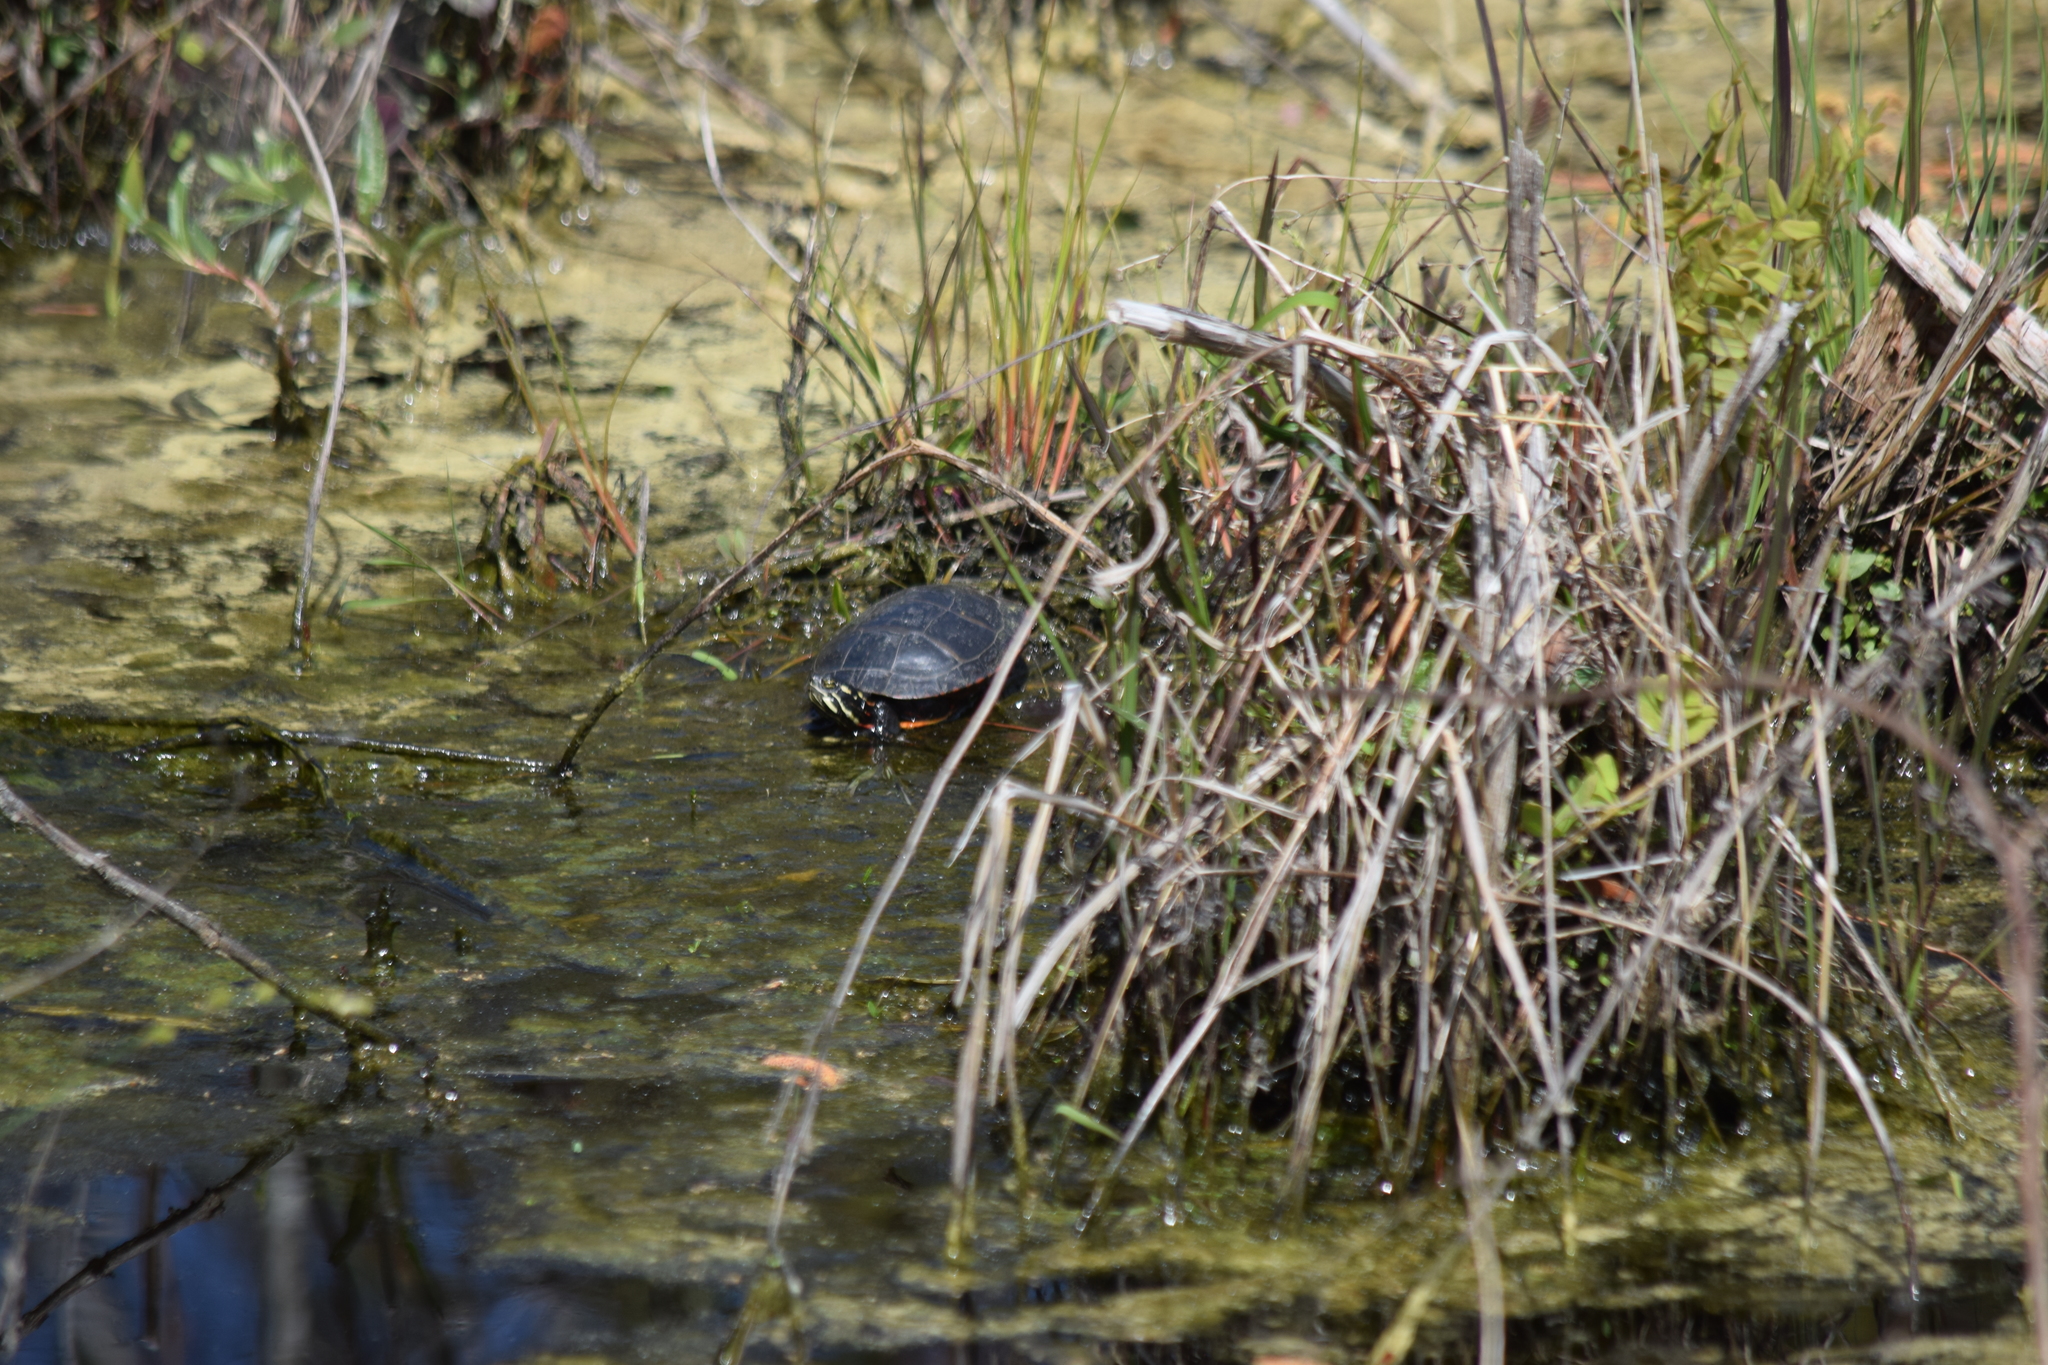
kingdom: Animalia
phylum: Chordata
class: Testudines
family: Emydidae
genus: Chrysemys
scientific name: Chrysemys picta
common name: Painted turtle
